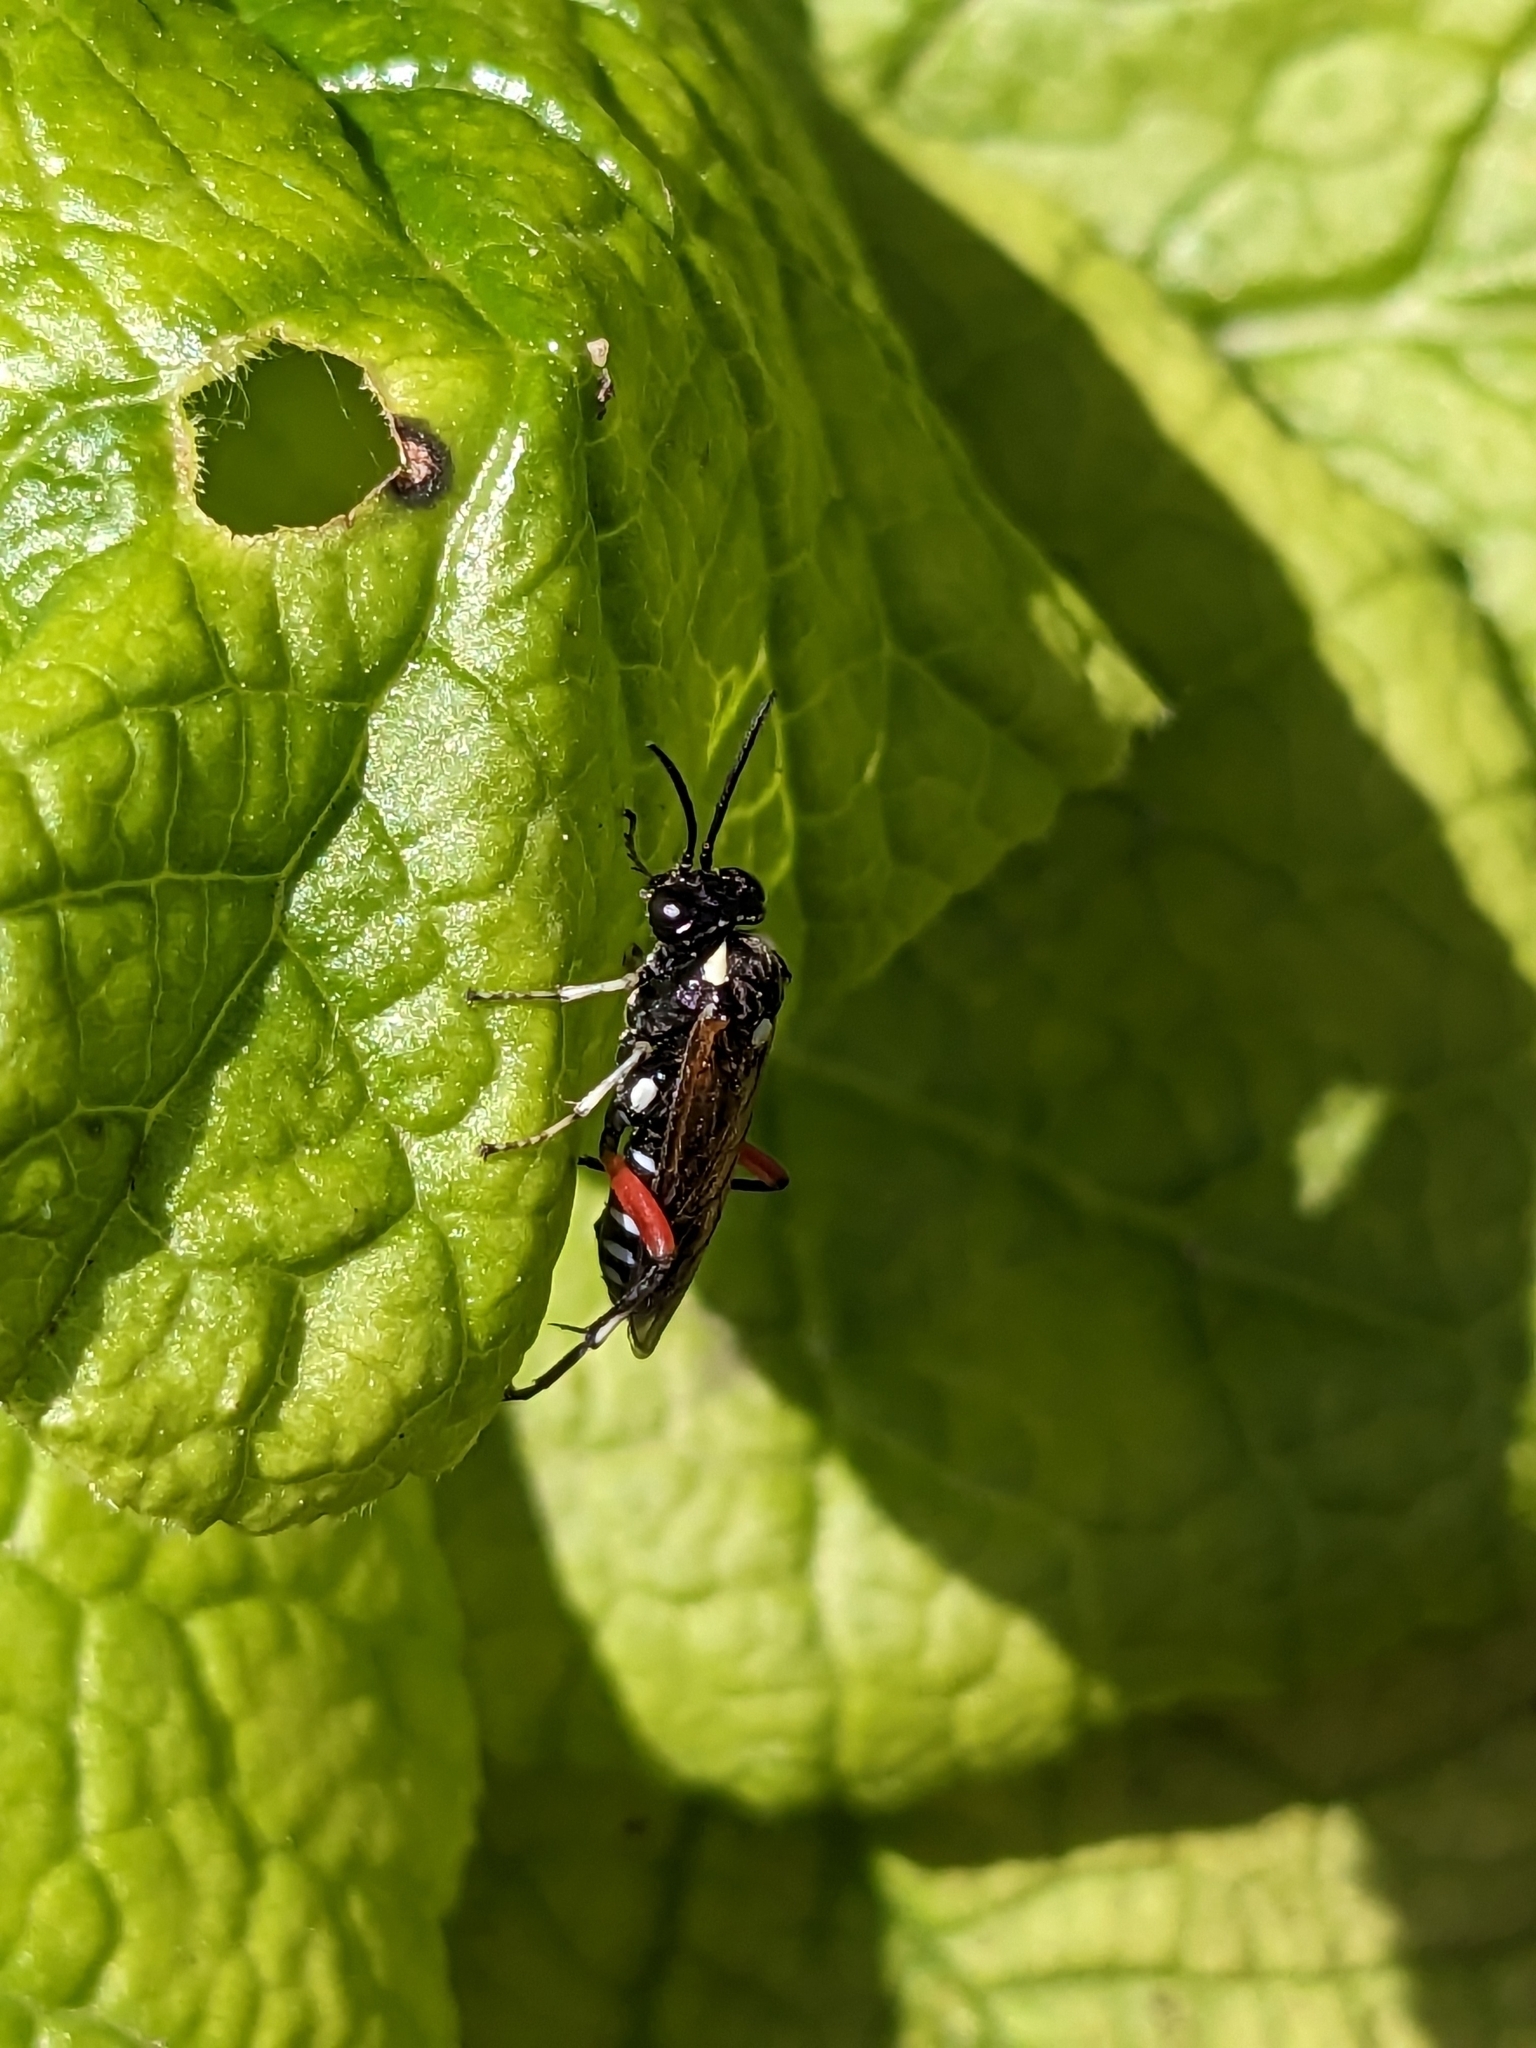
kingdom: Animalia
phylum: Arthropoda
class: Insecta
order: Hymenoptera
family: Tenthredinidae
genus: Macrophya
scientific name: Macrophya punctumalbum
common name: Sawfly
